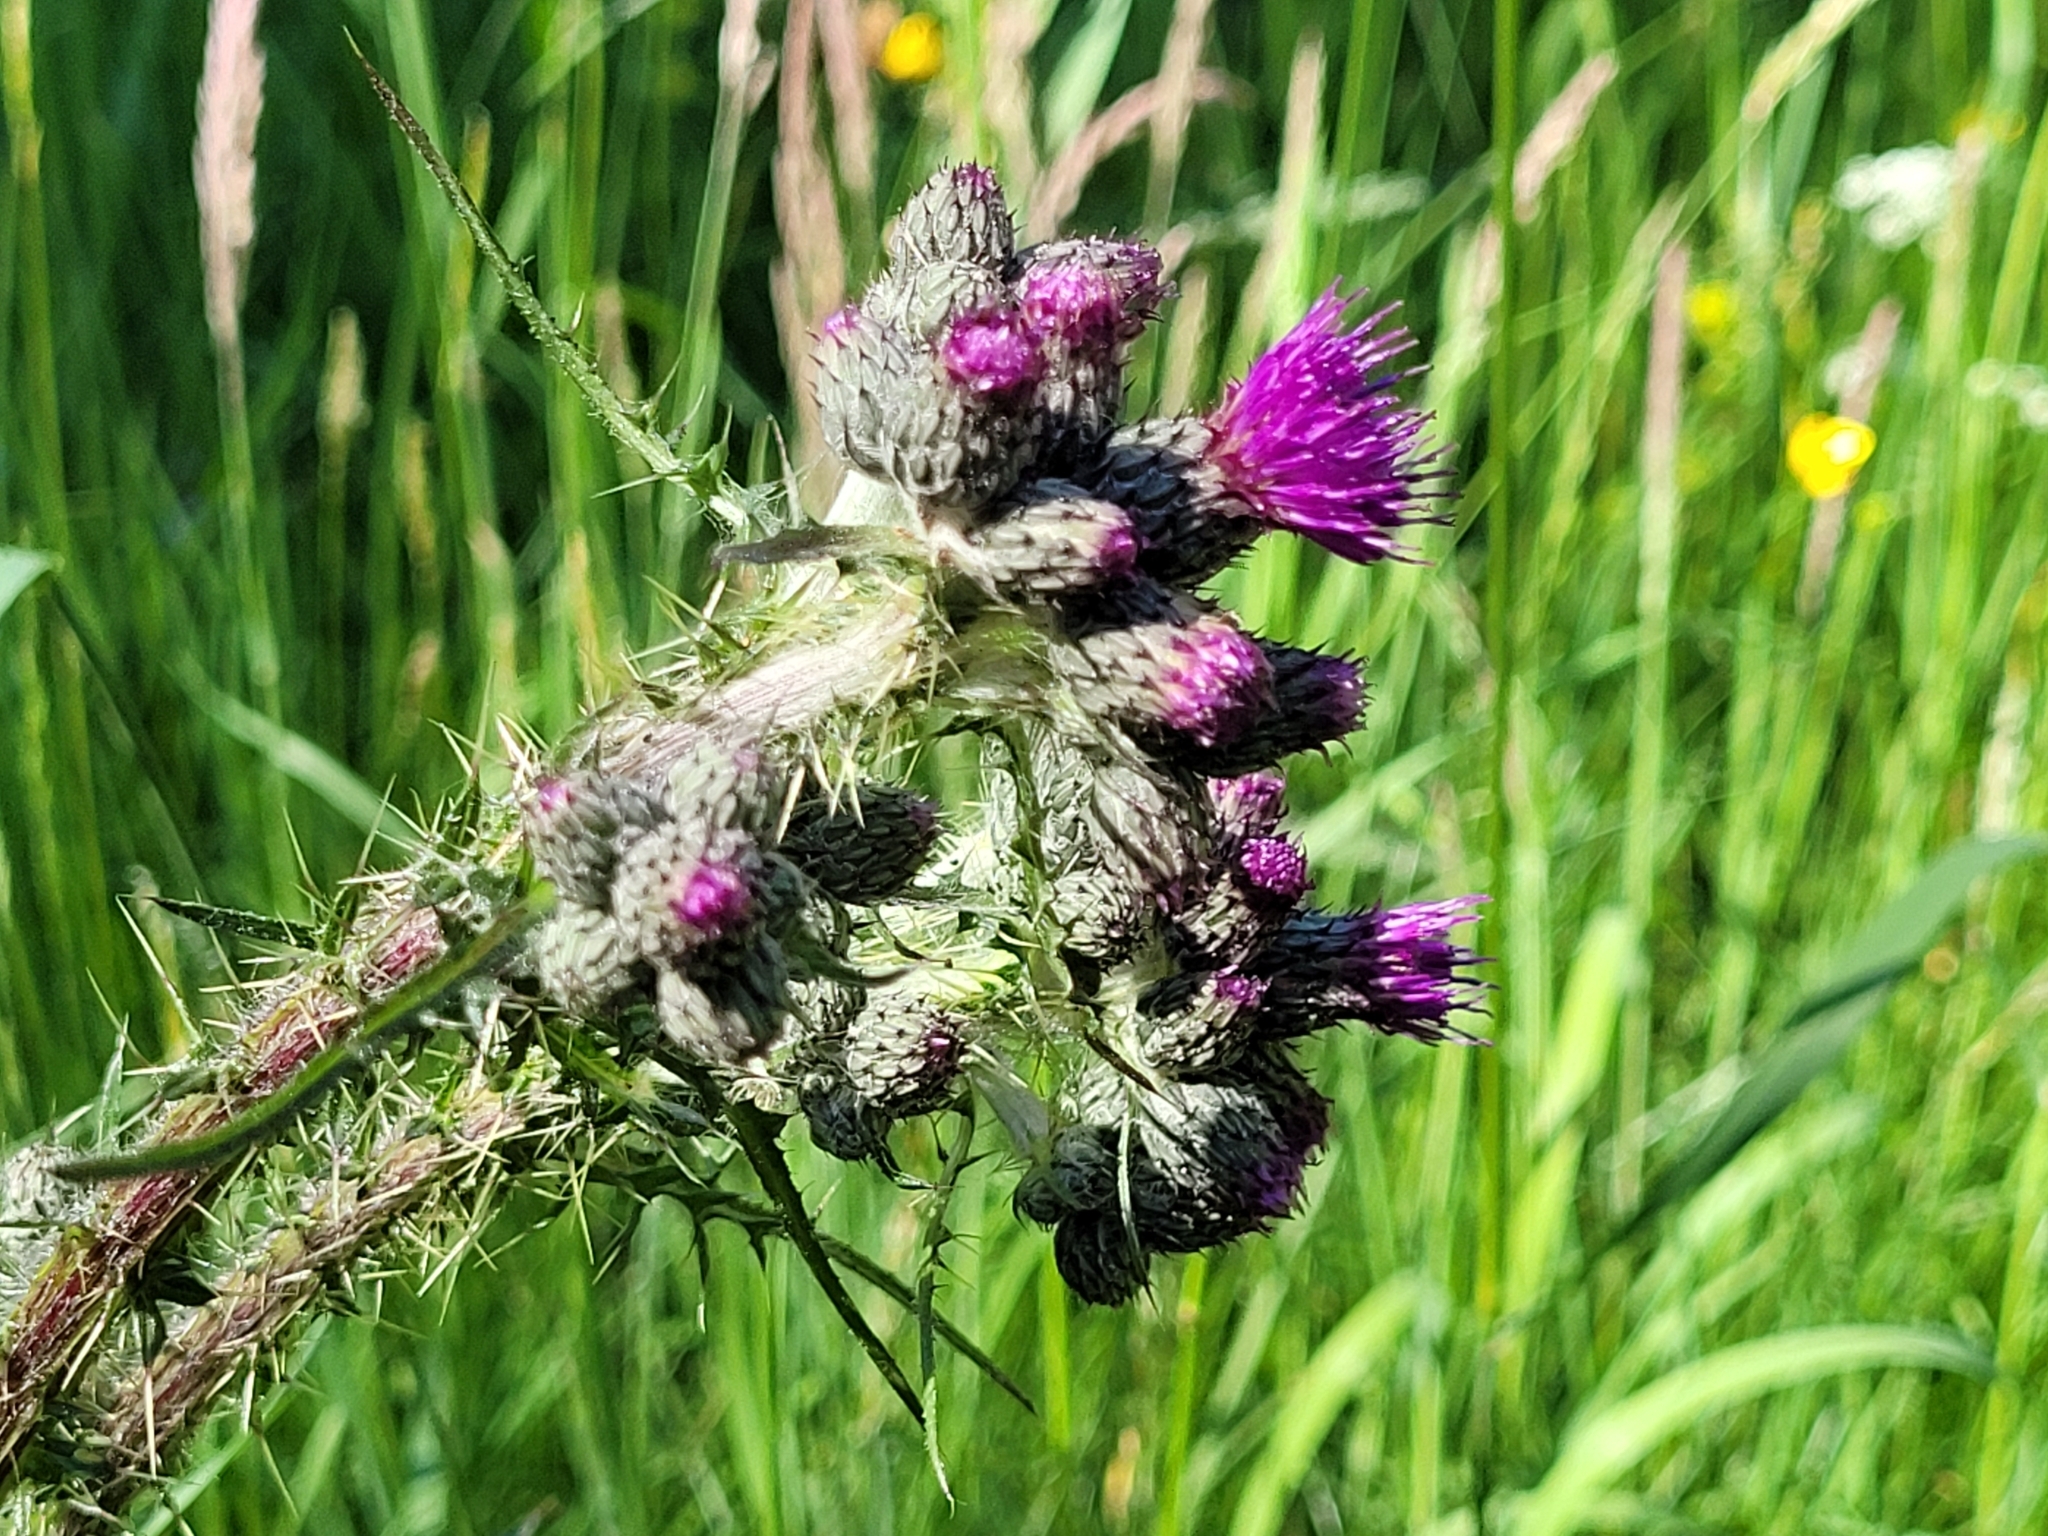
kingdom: Plantae
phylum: Tracheophyta
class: Magnoliopsida
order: Asterales
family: Asteraceae
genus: Cirsium
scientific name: Cirsium palustre
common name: Marsh thistle
